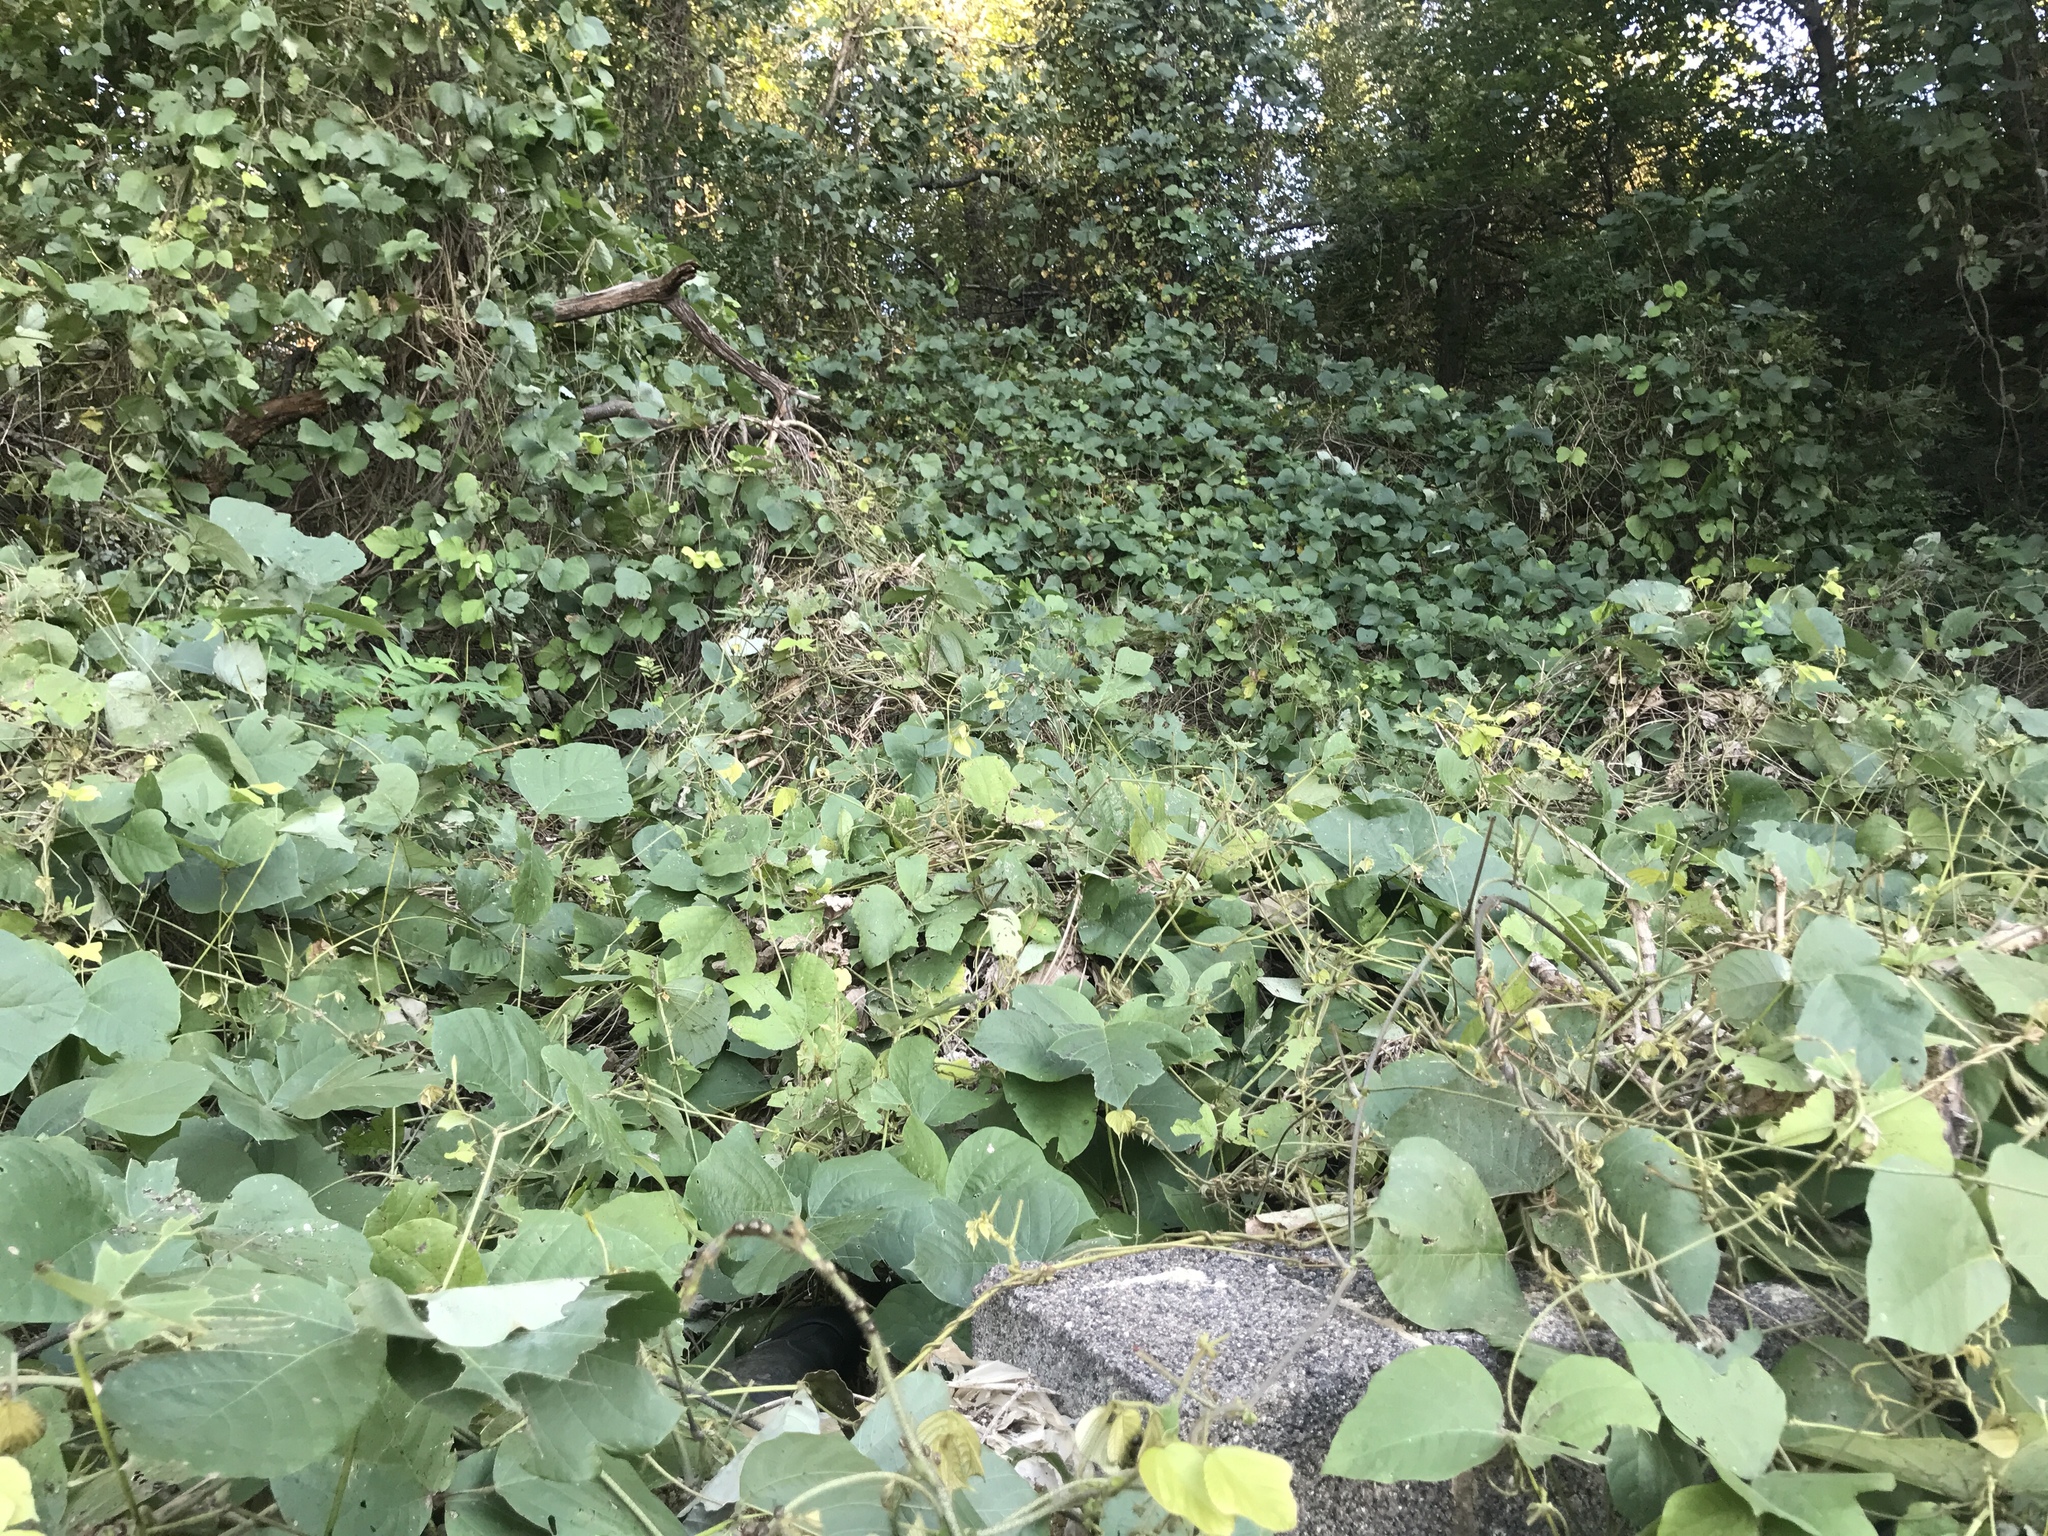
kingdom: Plantae
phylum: Tracheophyta
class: Magnoliopsida
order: Fabales
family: Fabaceae
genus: Pueraria
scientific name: Pueraria montana
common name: Kudzu
